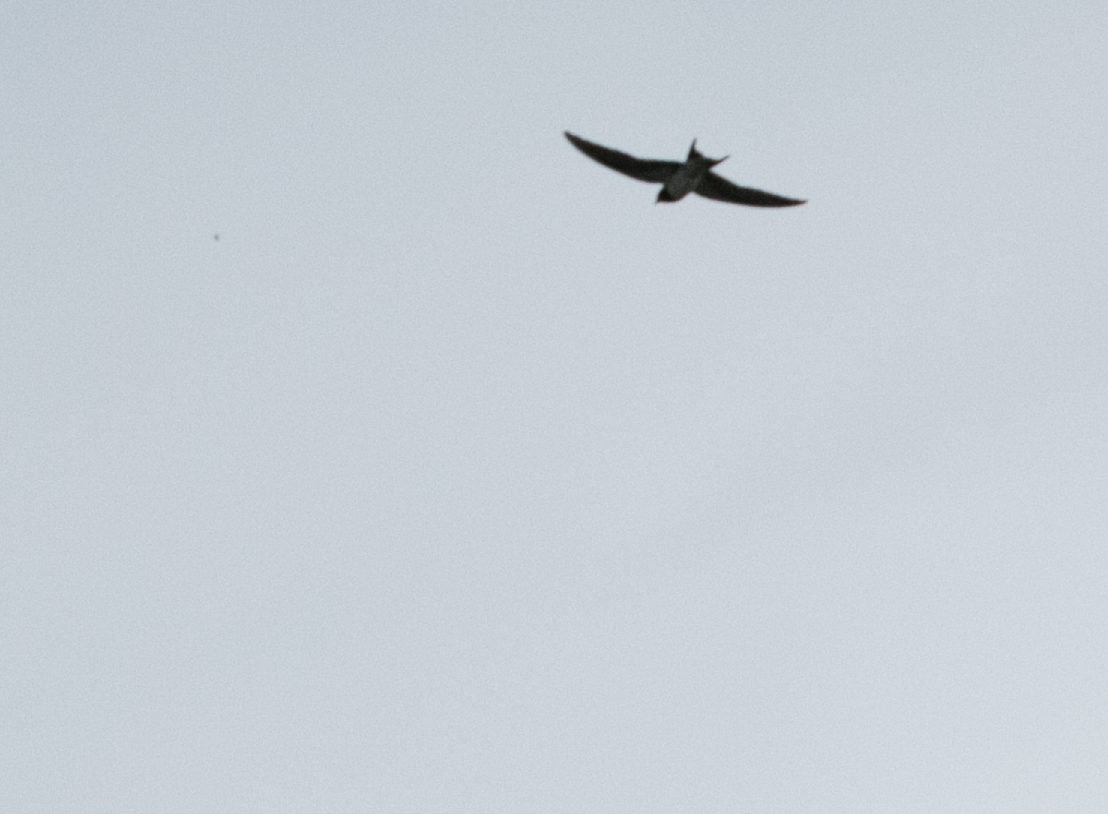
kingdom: Animalia
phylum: Chordata
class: Aves
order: Passeriformes
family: Hirundinidae
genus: Hirundo
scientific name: Hirundo rustica
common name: Barn swallow
